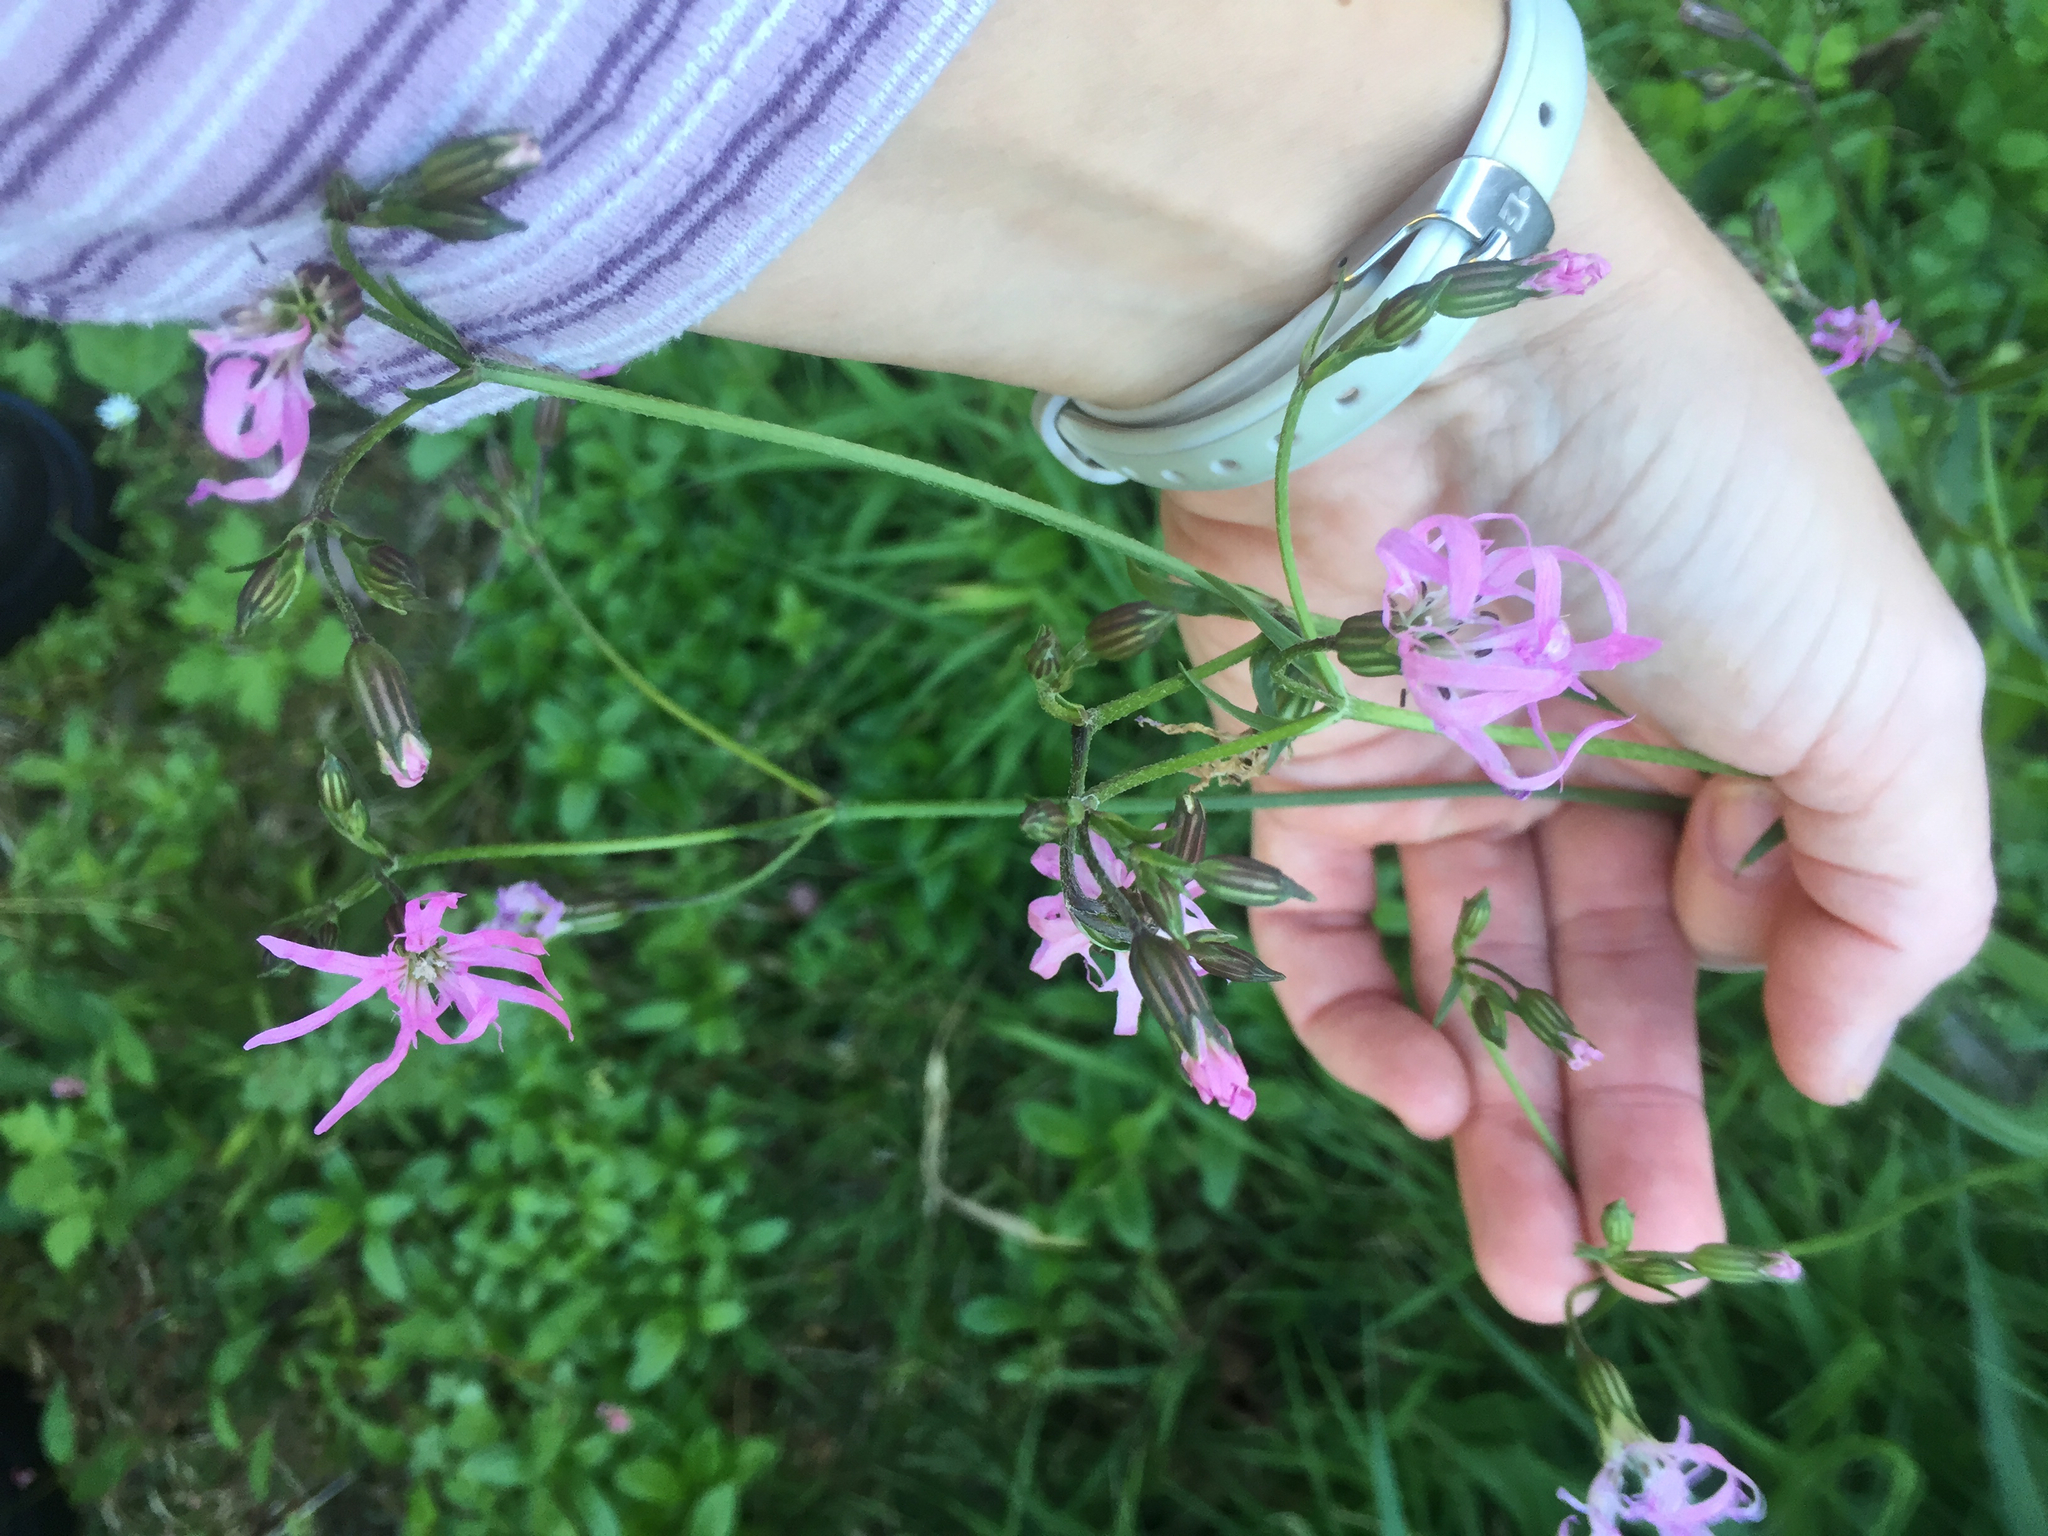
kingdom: Plantae
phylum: Tracheophyta
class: Magnoliopsida
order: Caryophyllales
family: Caryophyllaceae
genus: Silene
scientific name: Silene flos-cuculi
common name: Ragged-robin
